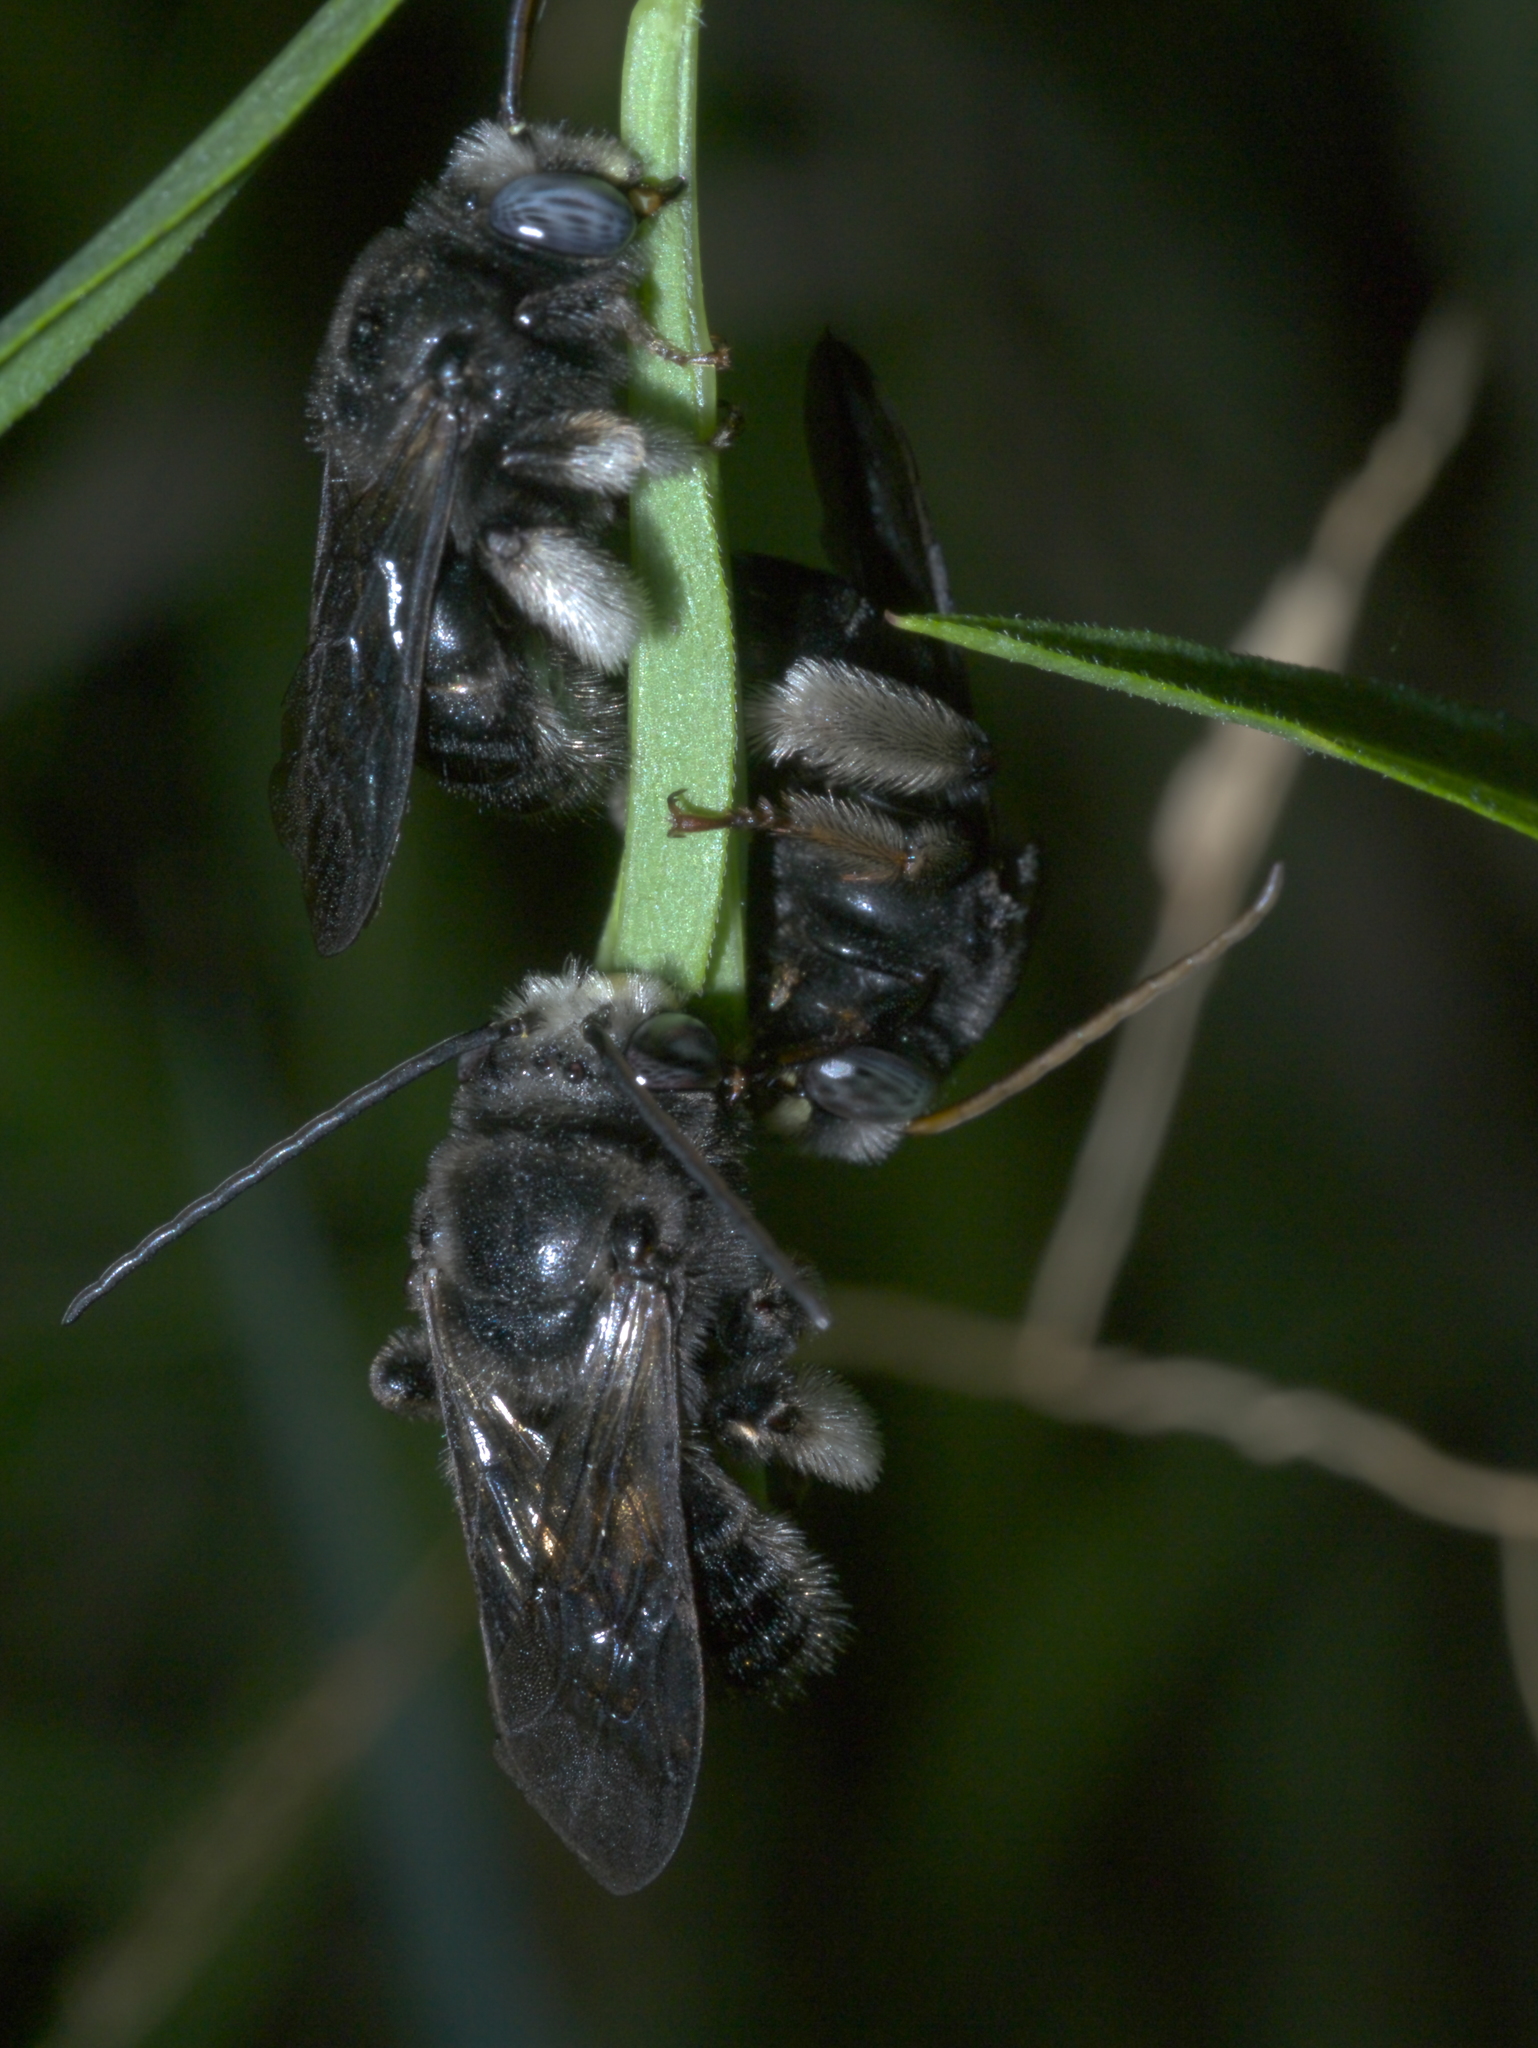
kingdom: Animalia
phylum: Arthropoda
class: Insecta
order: Hymenoptera
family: Apidae
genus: Melissodes
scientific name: Melissodes bimaculatus
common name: Two-spotted long-horned bee
